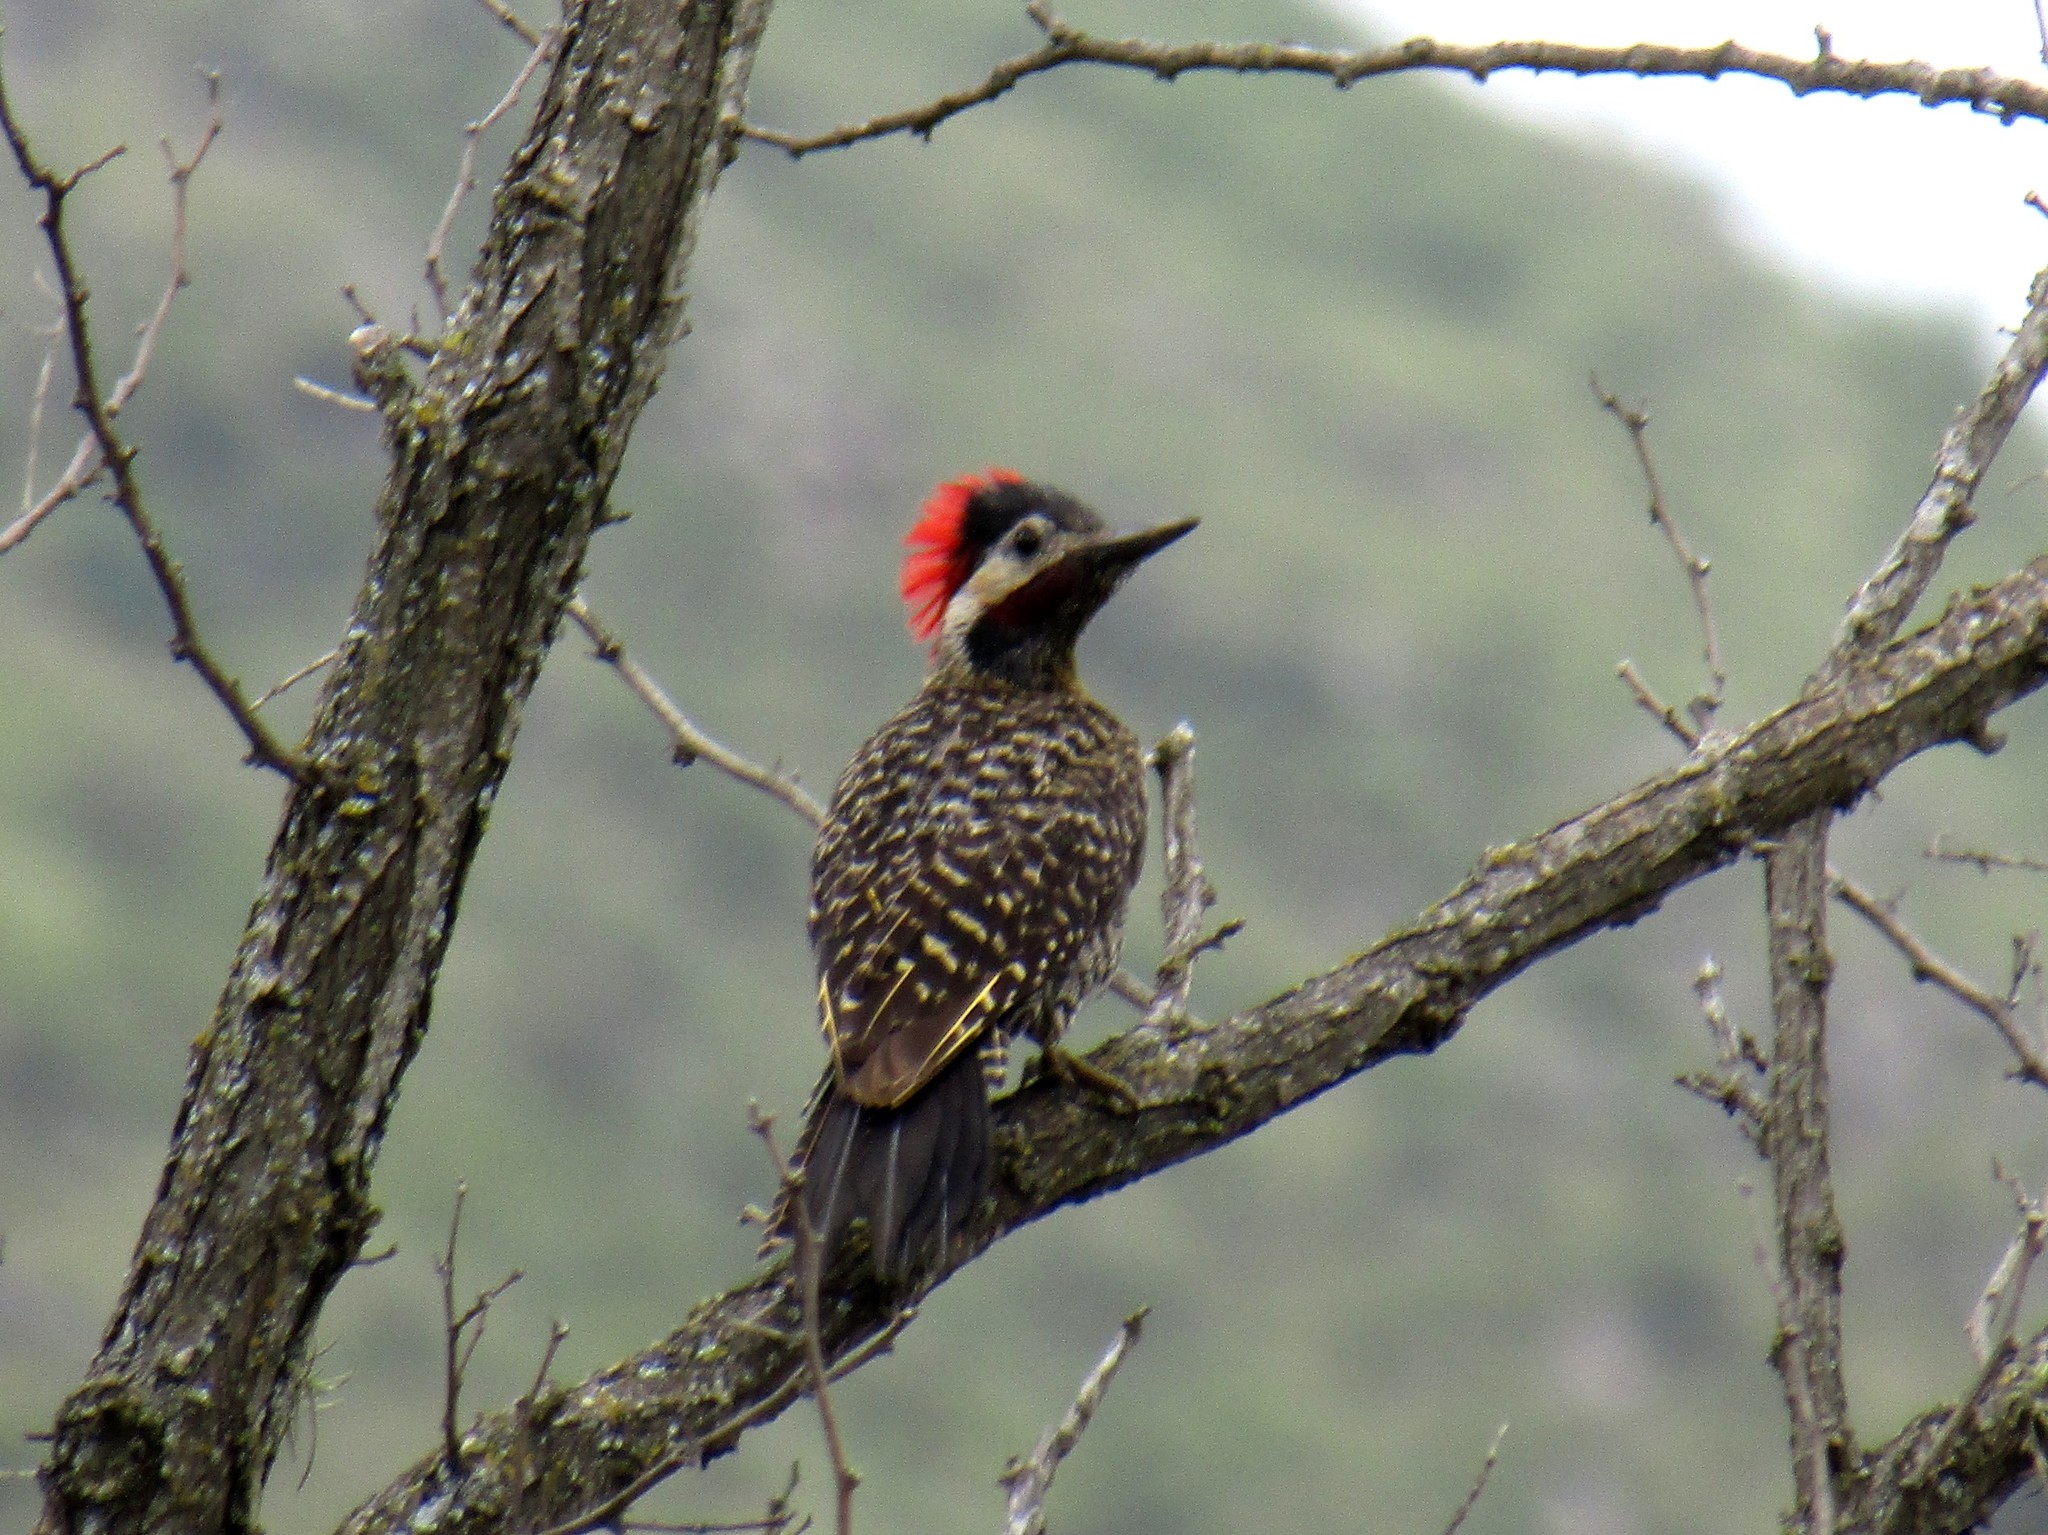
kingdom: Animalia
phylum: Chordata
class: Aves
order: Piciformes
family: Picidae
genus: Colaptes
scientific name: Colaptes melanochloros
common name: Green-barred woodpecker
